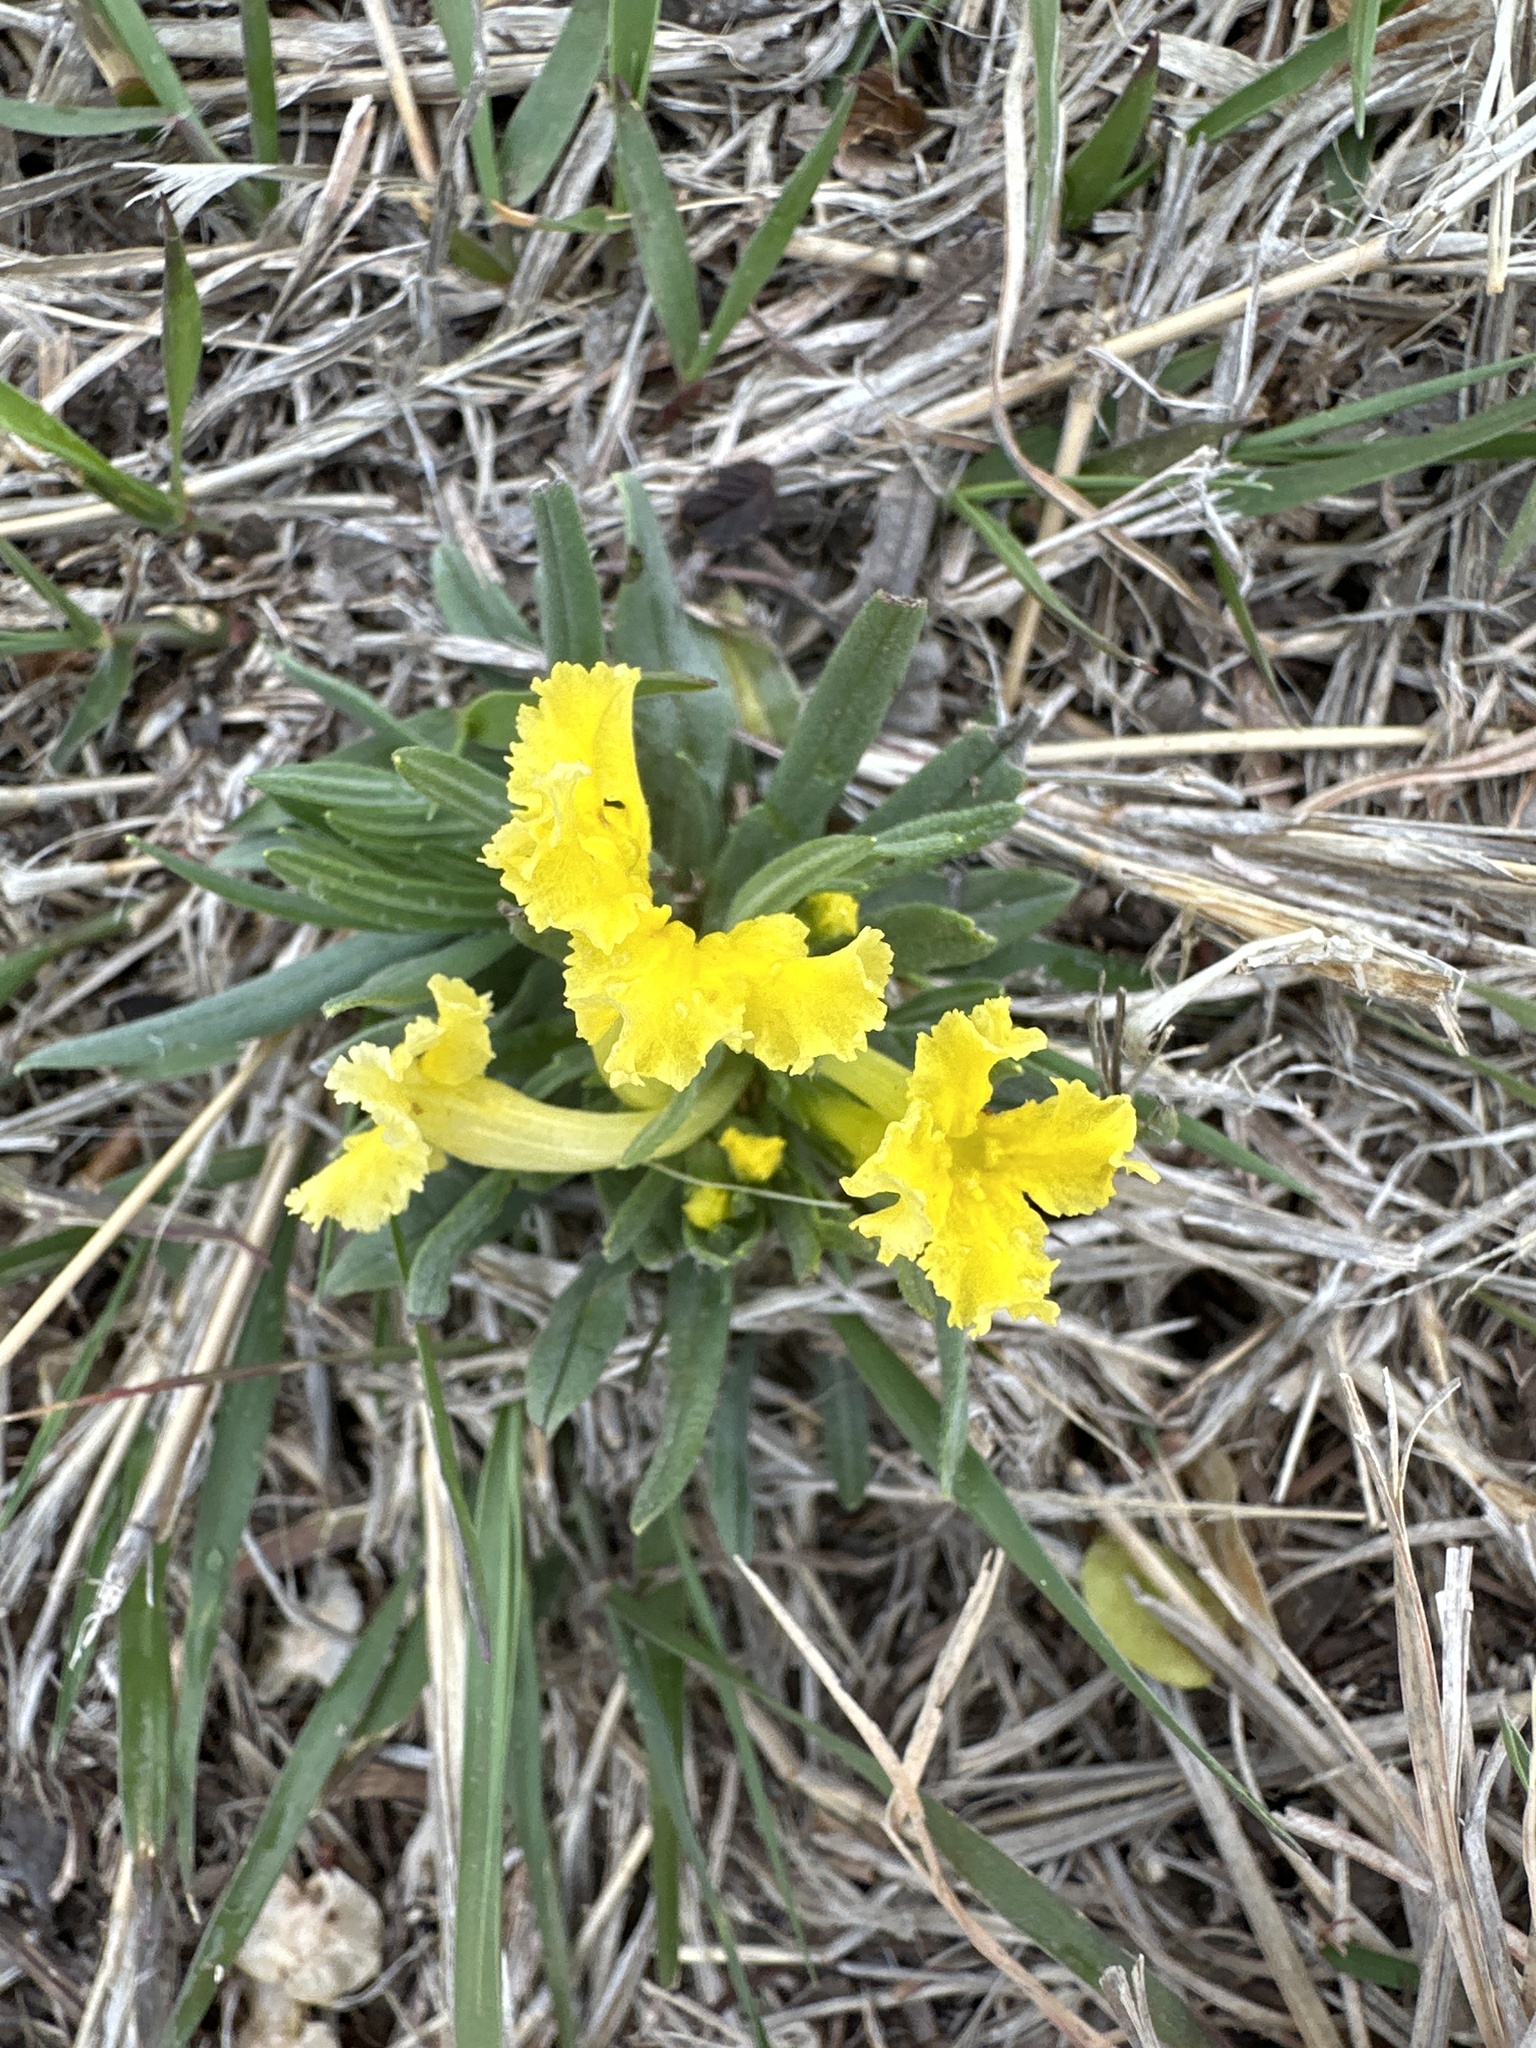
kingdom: Plantae
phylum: Tracheophyta
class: Magnoliopsida
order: Boraginales
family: Boraginaceae
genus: Lithospermum
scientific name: Lithospermum incisum
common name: Fringed gromwell
